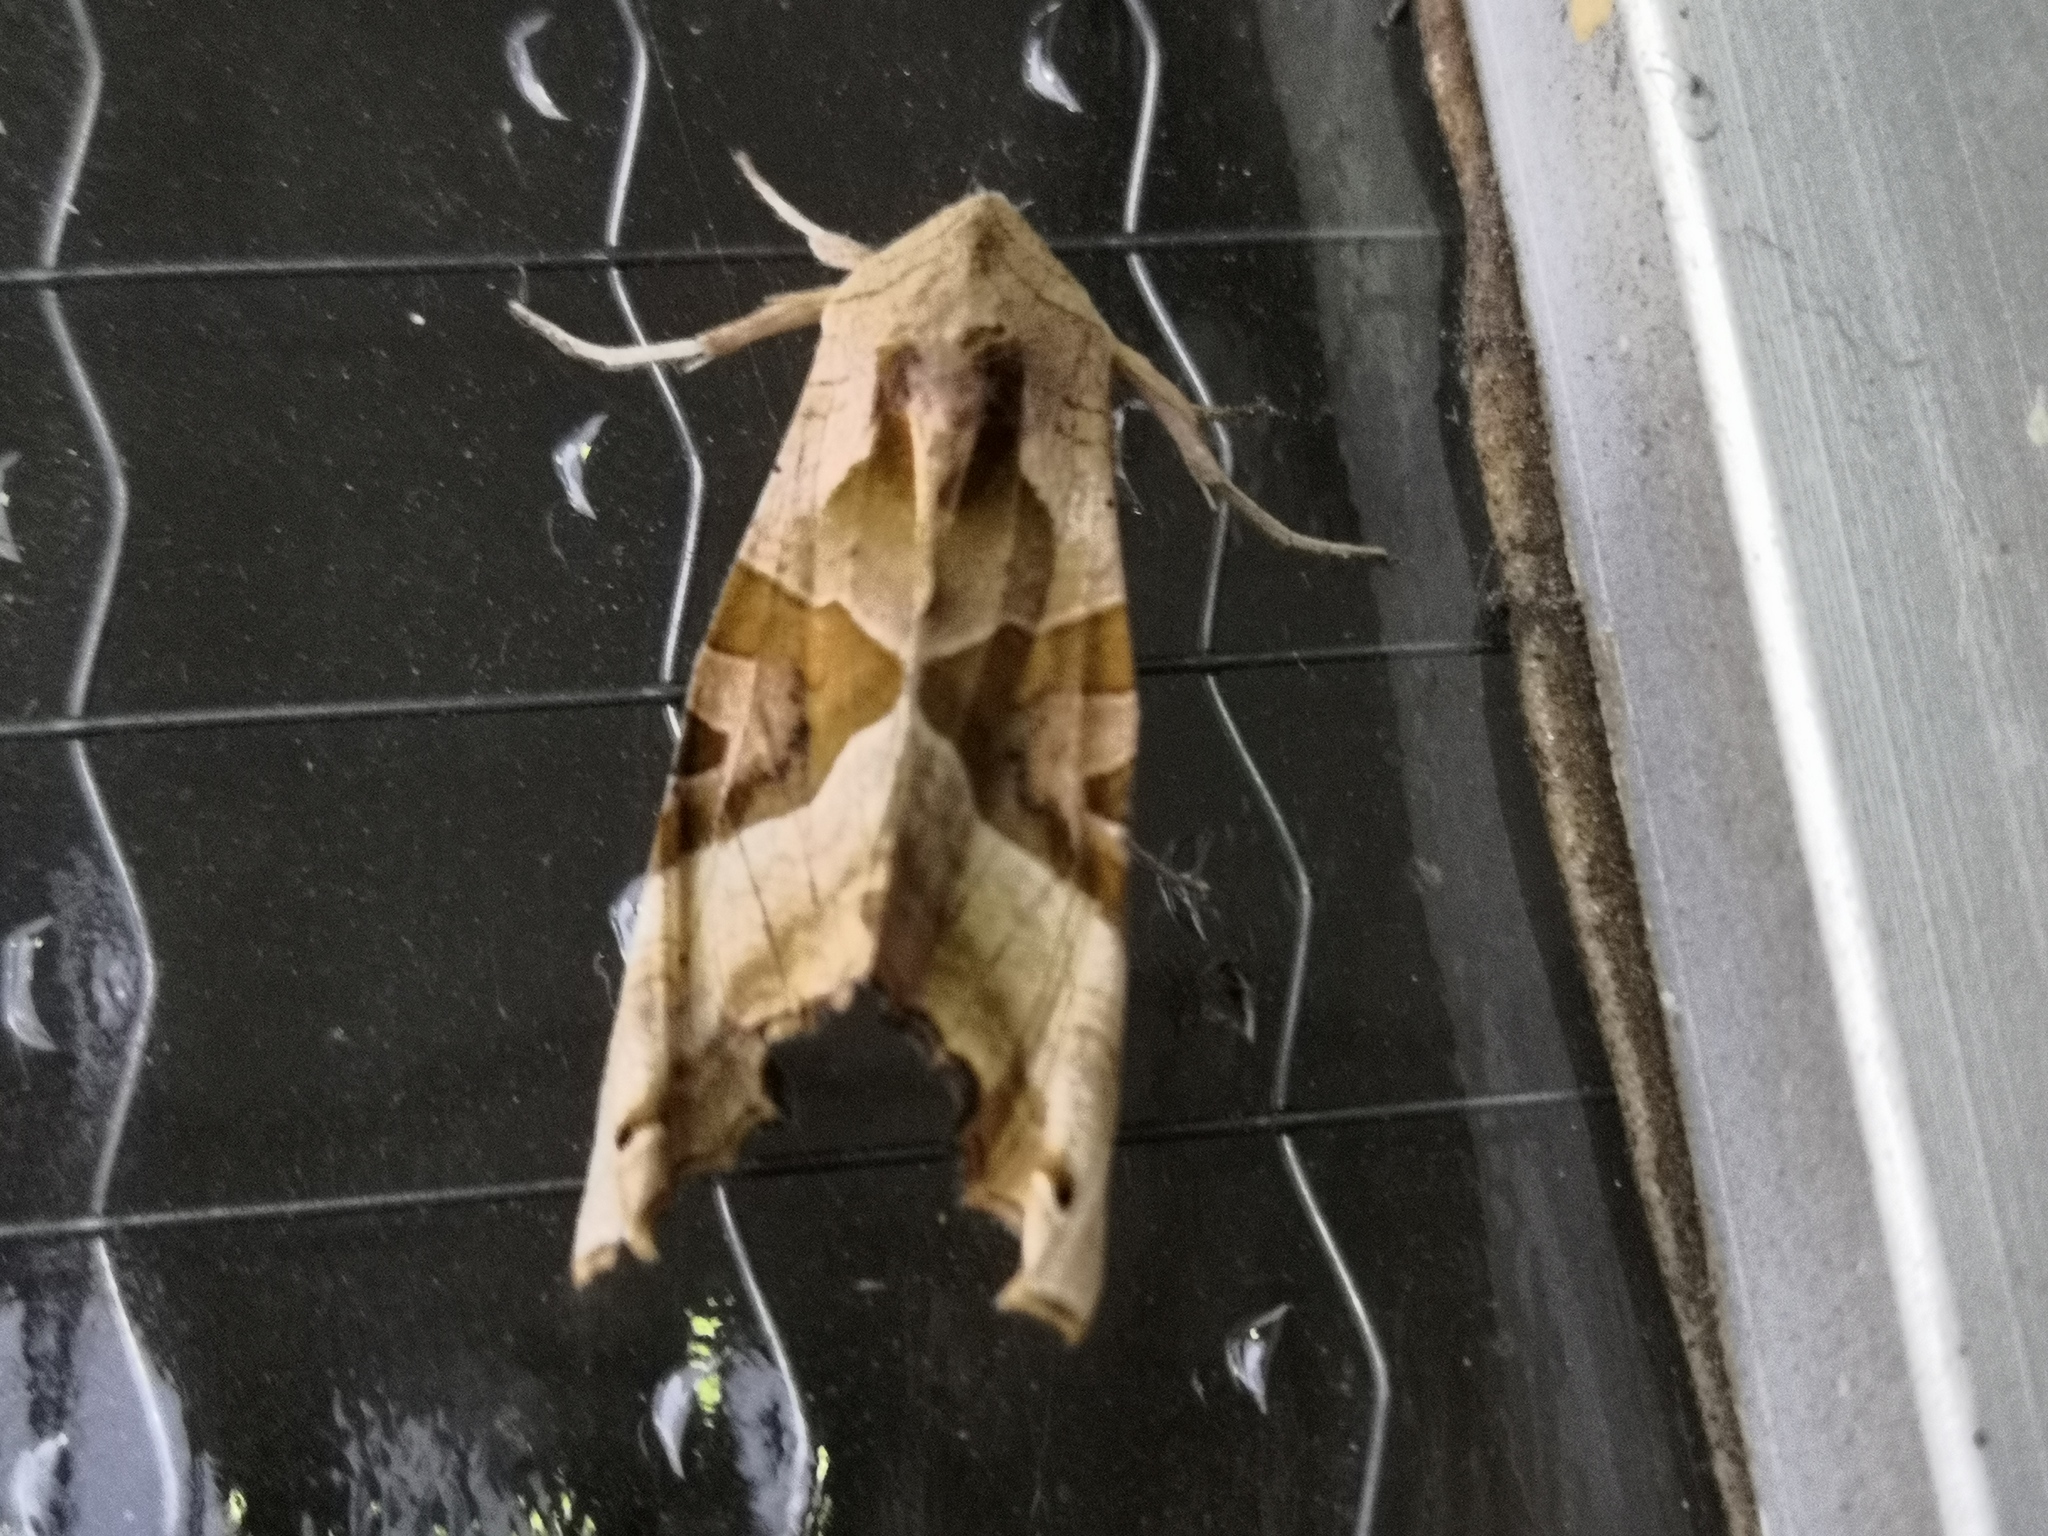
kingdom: Animalia
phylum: Arthropoda
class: Insecta
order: Lepidoptera
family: Noctuidae
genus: Phlogophora
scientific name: Phlogophora meticulosa
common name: Angle shades
